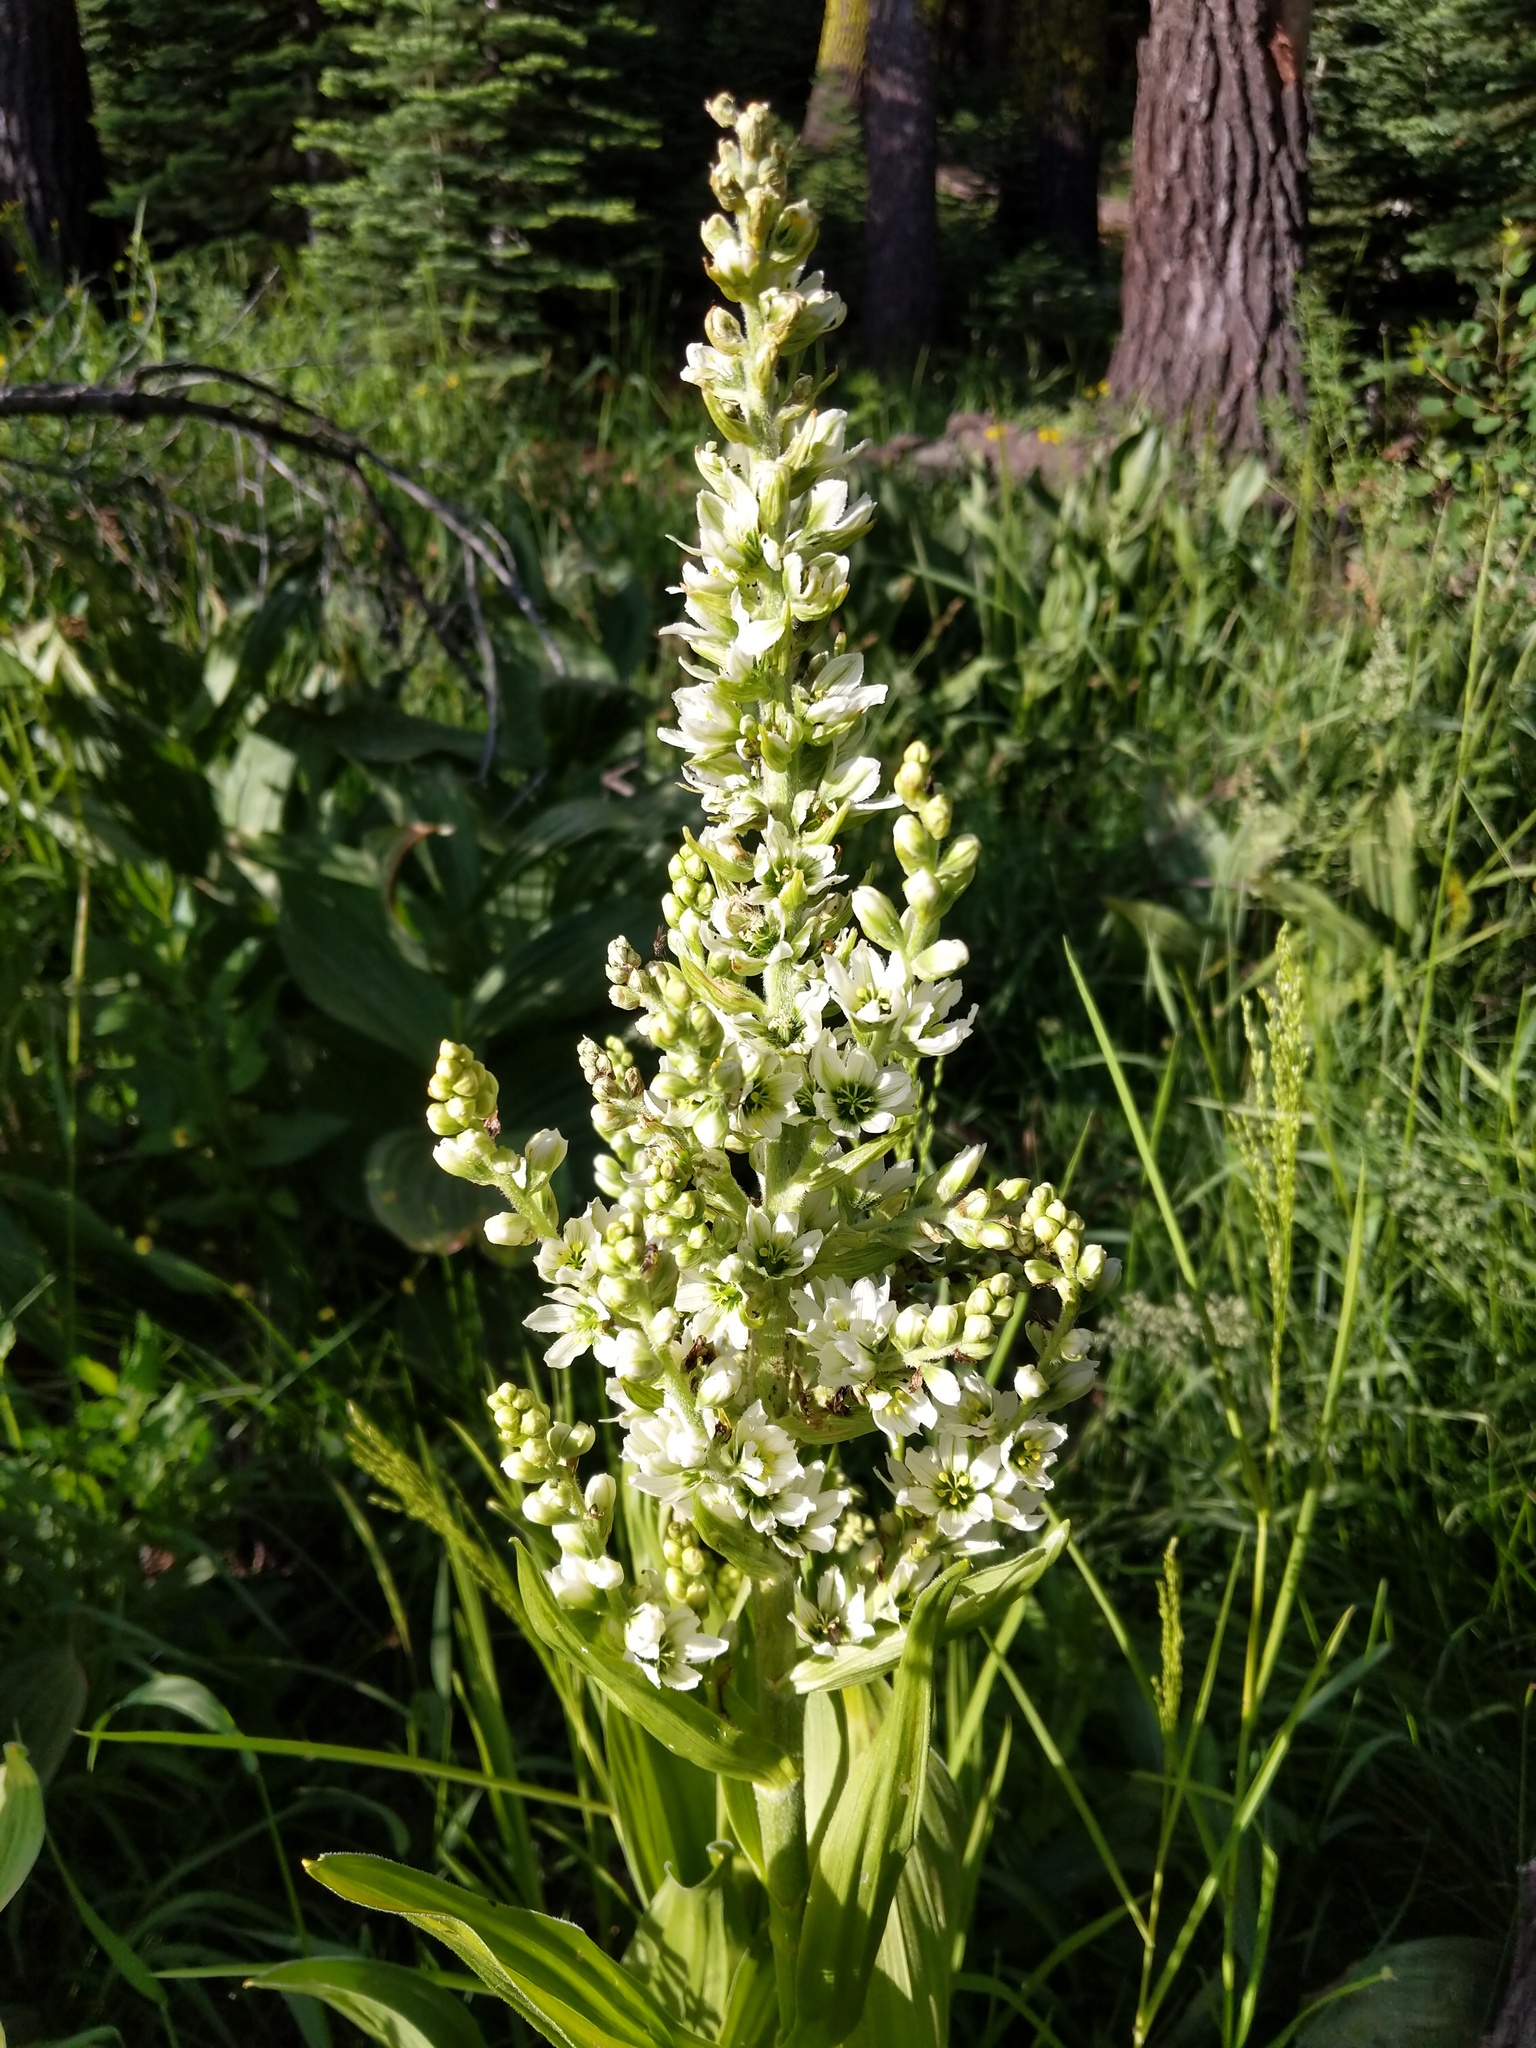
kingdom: Plantae
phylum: Tracheophyta
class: Liliopsida
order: Liliales
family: Melanthiaceae
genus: Veratrum
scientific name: Veratrum californicum
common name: California veratrum
